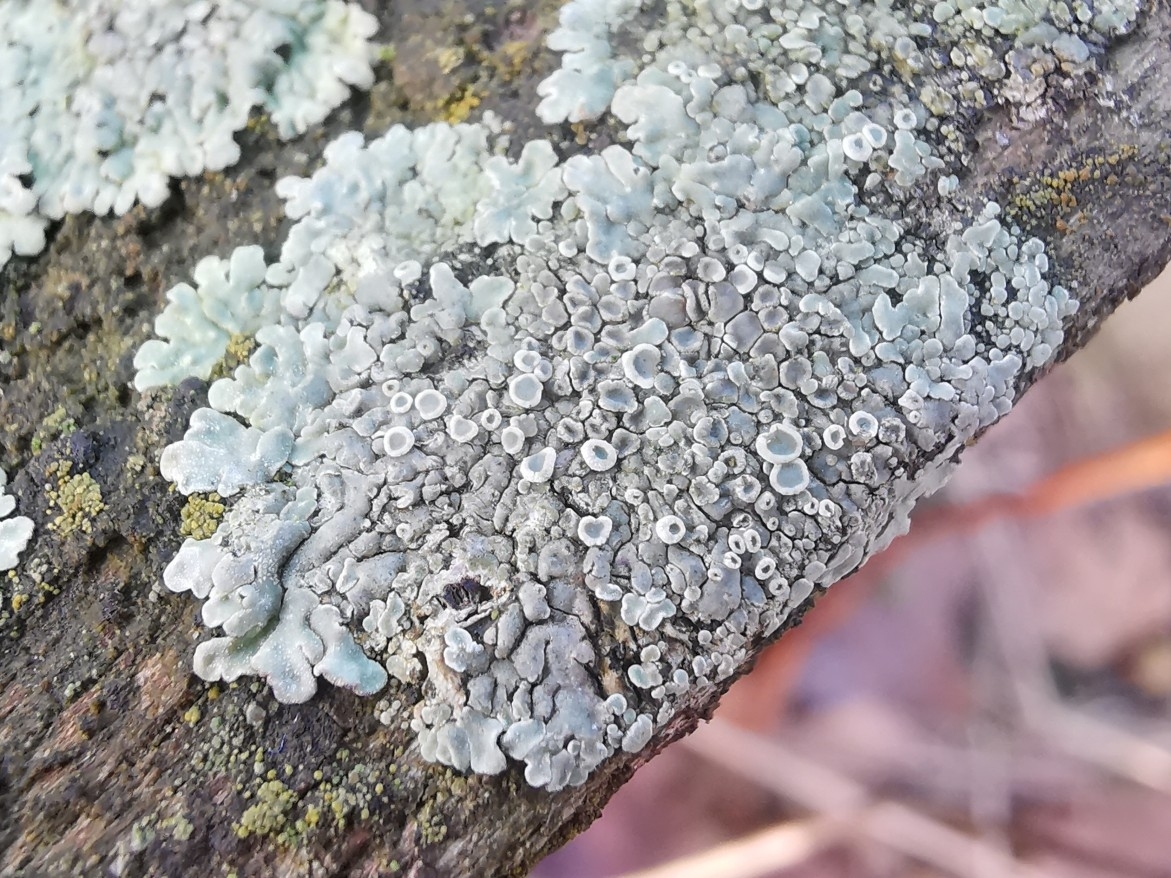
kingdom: Fungi
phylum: Ascomycota
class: Lecanoromycetes
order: Lecanorales
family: Lecanoraceae
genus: Protoparmeliopsis
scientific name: Protoparmeliopsis muralis
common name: Stonewall rim lichen
